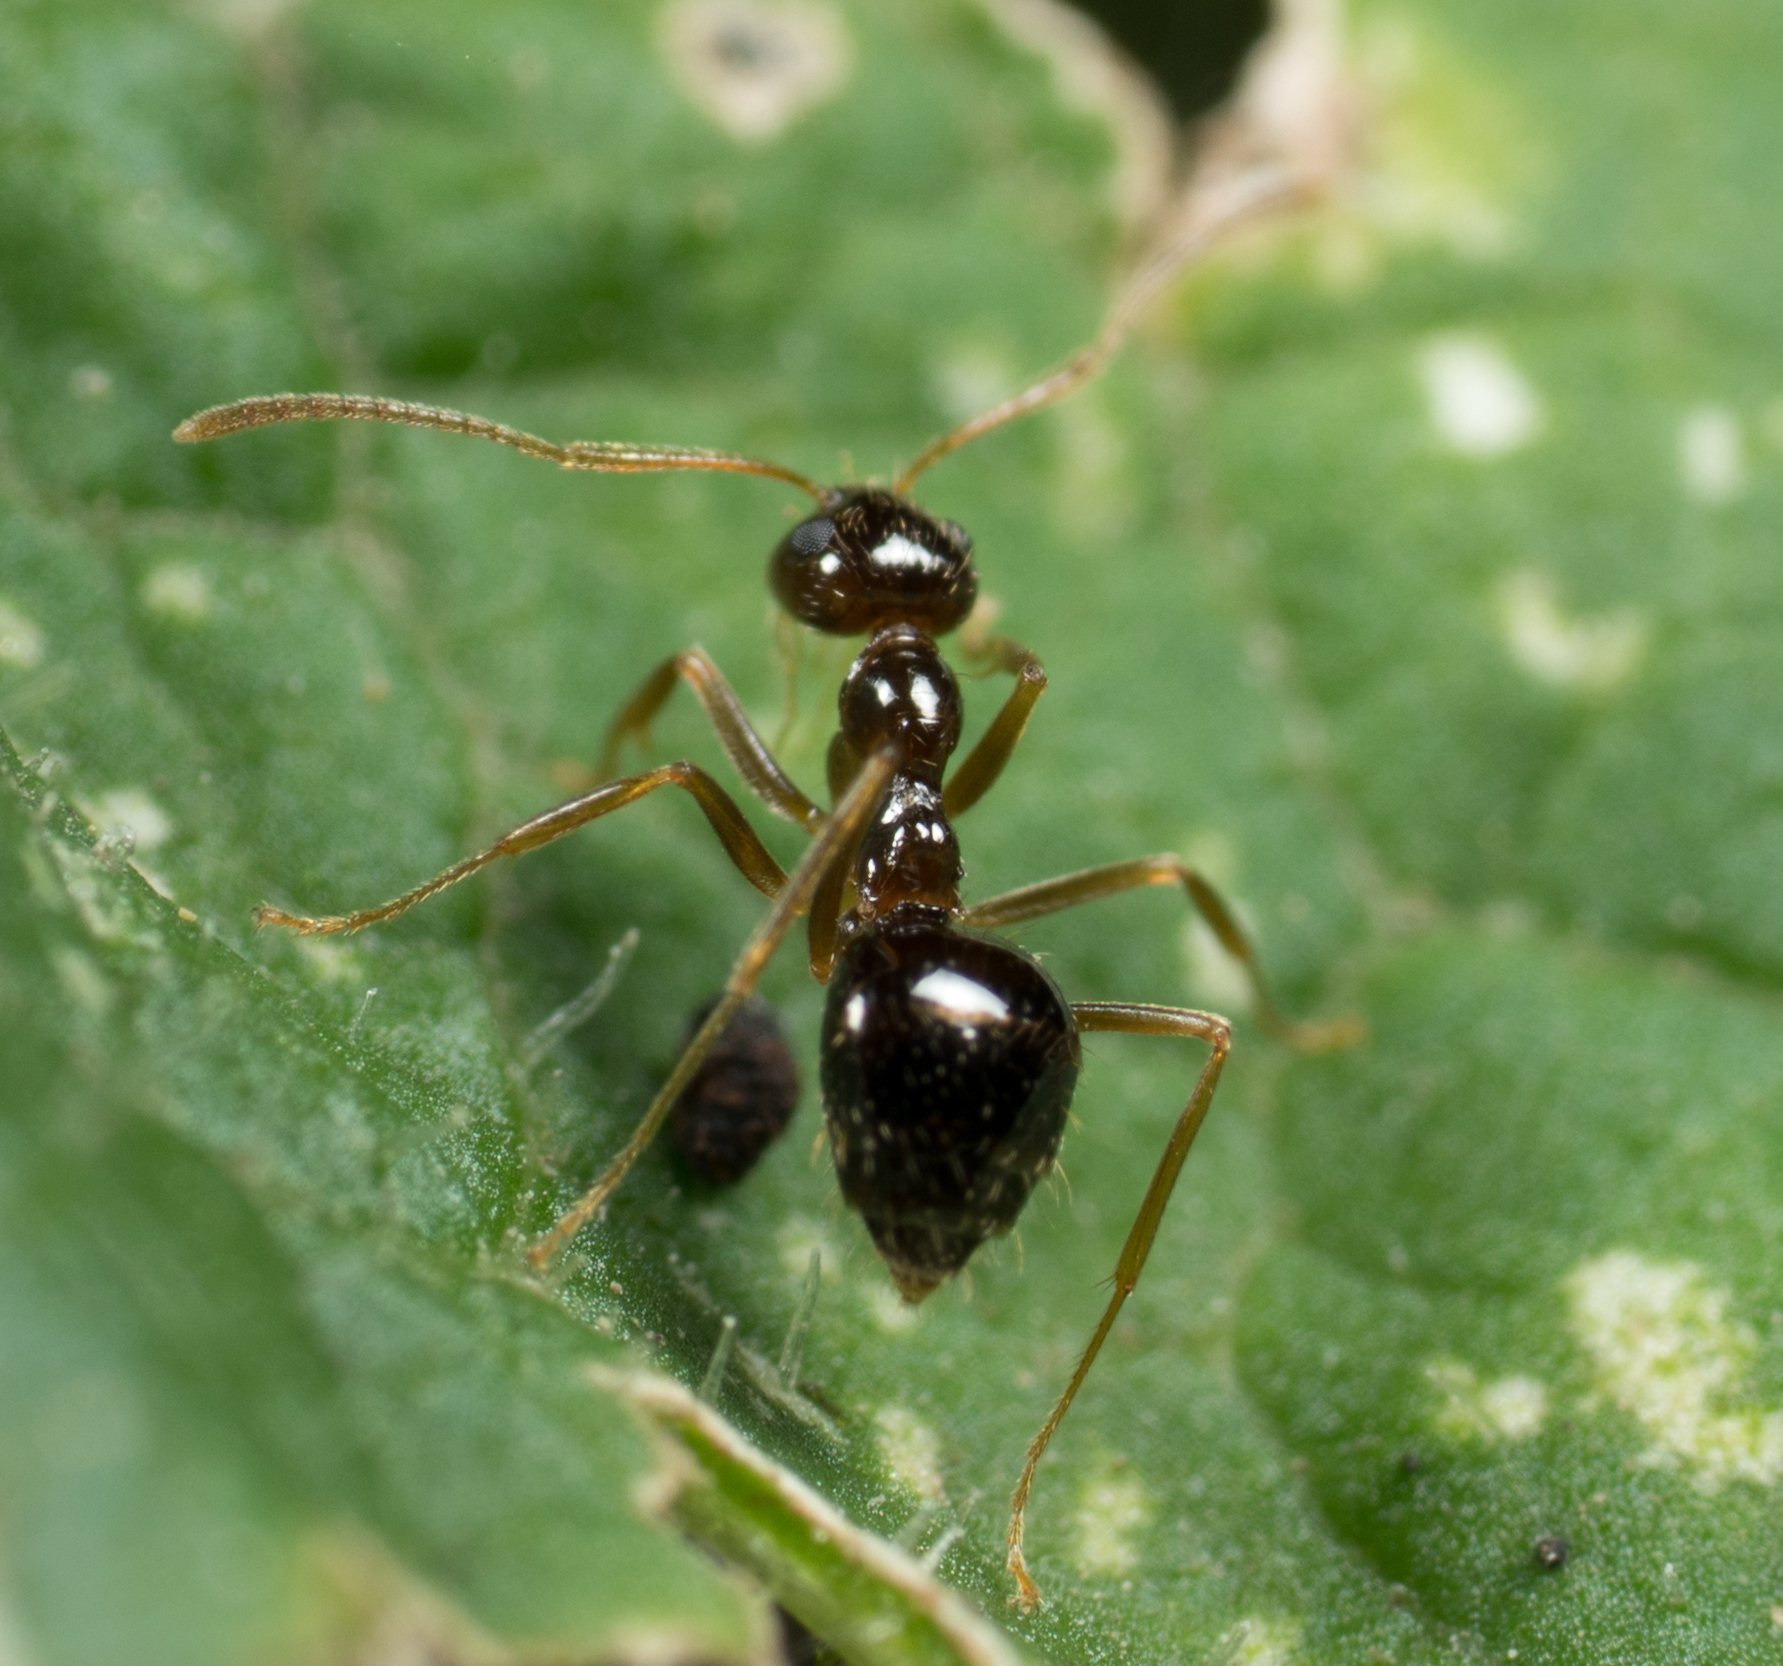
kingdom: Animalia
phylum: Arthropoda
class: Insecta
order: Hymenoptera
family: Formicidae
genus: Prenolepis
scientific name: Prenolepis imparis
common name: Small honey ant
